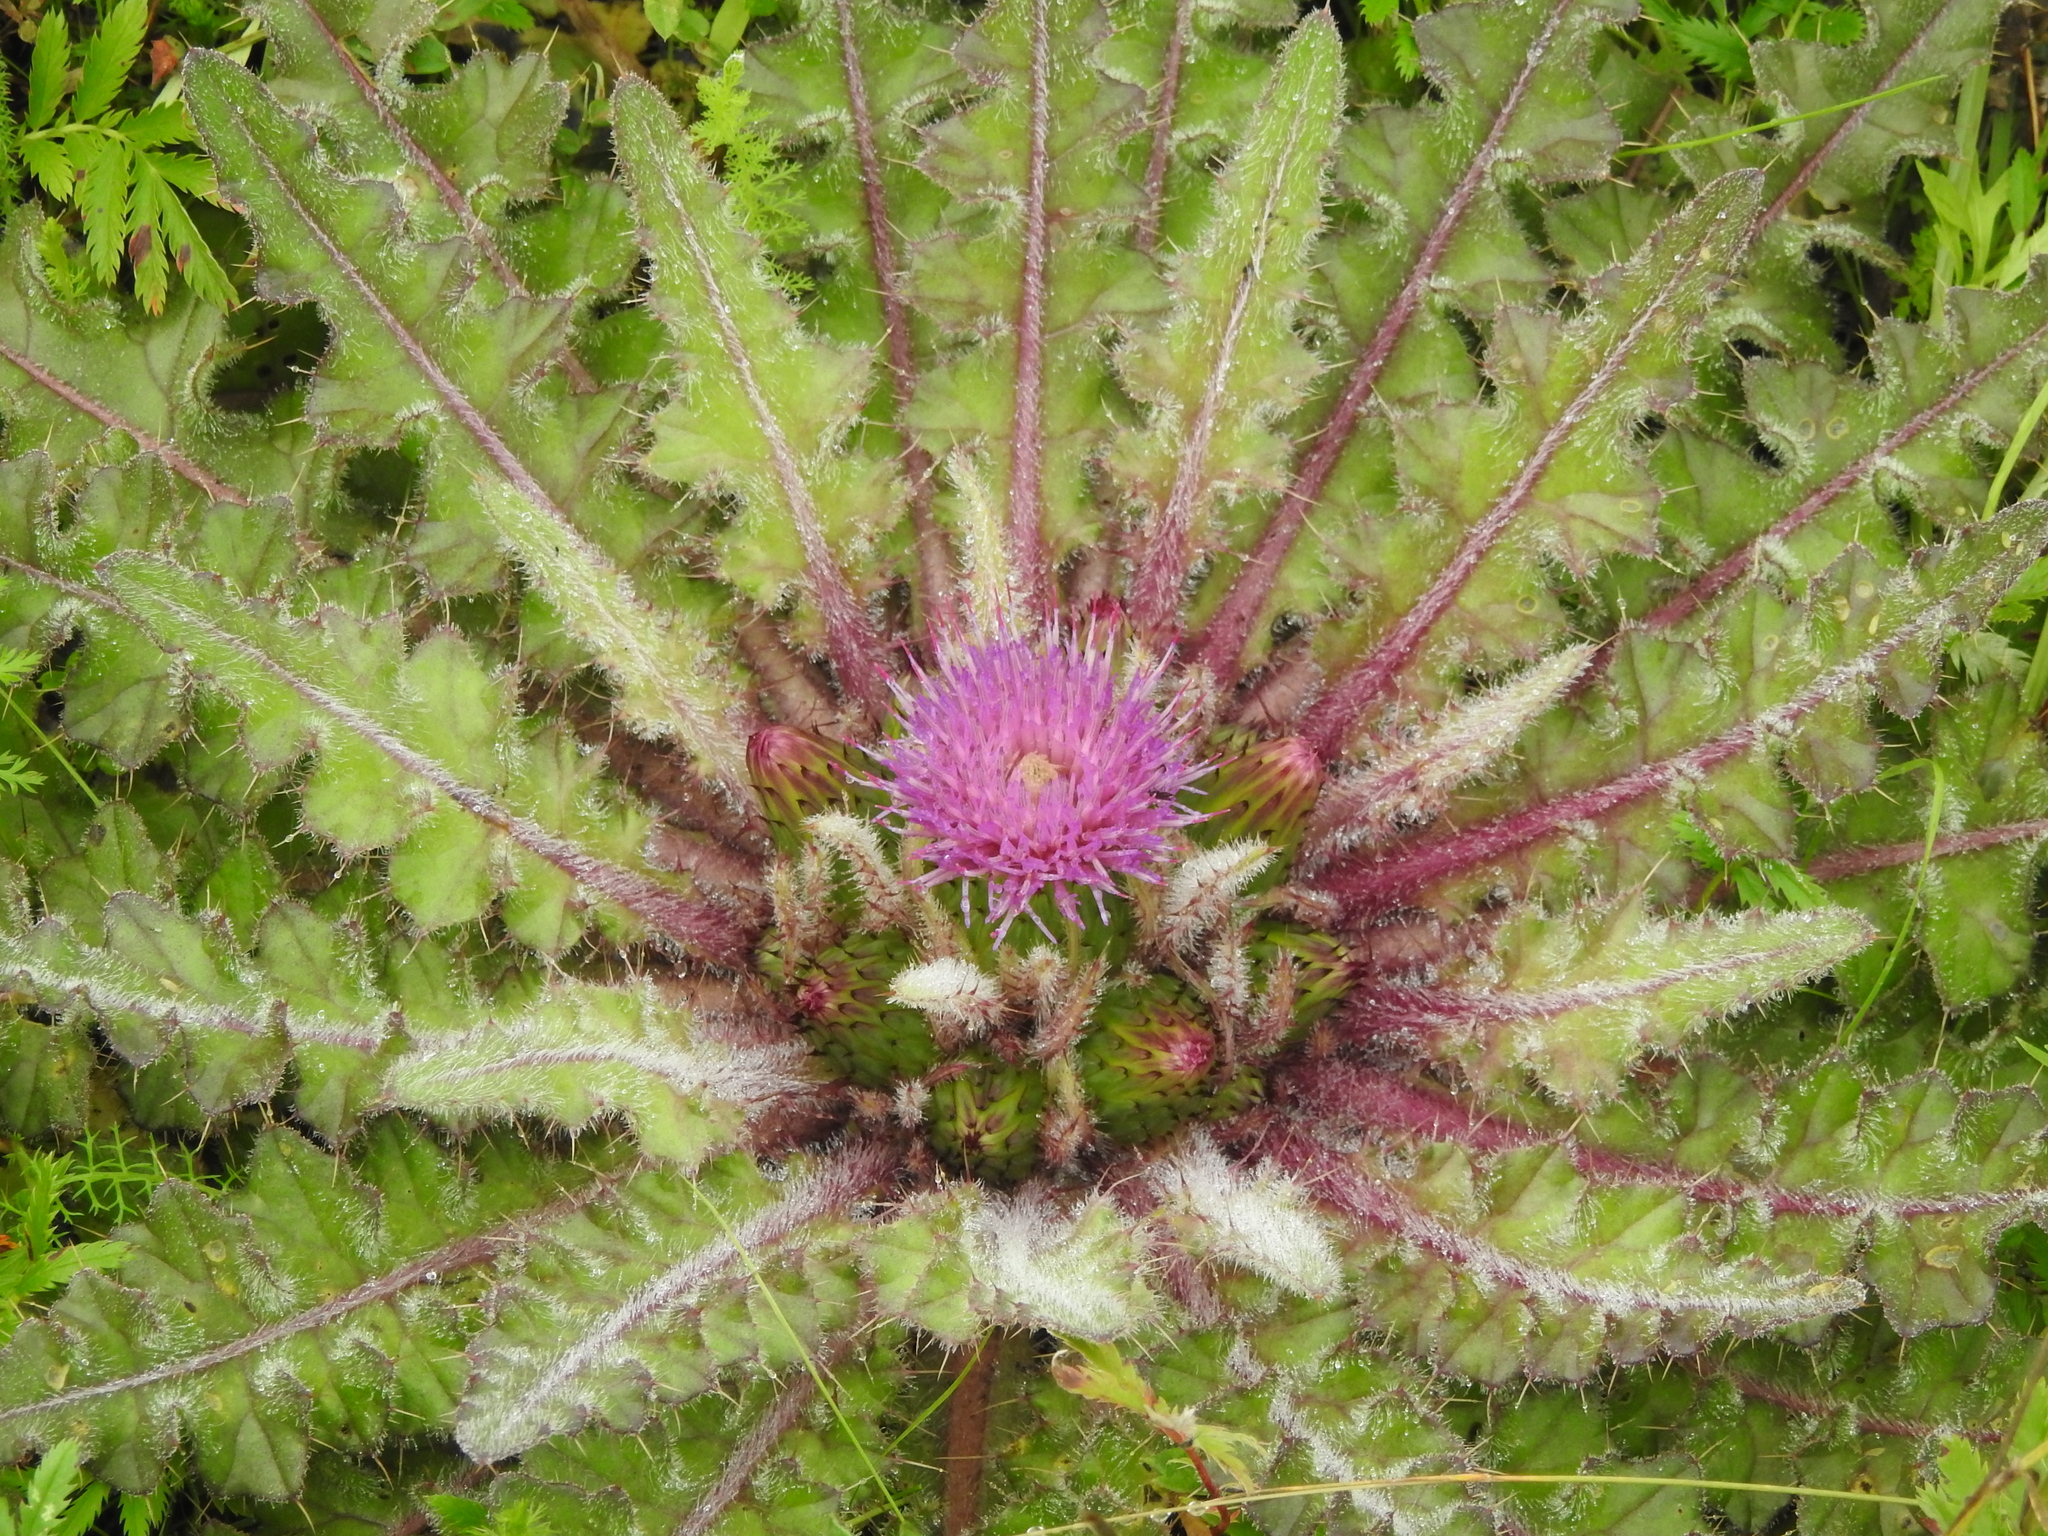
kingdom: Plantae
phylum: Tracheophyta
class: Magnoliopsida
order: Asterales
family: Asteraceae
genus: Cirsium
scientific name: Cirsium esculentum
